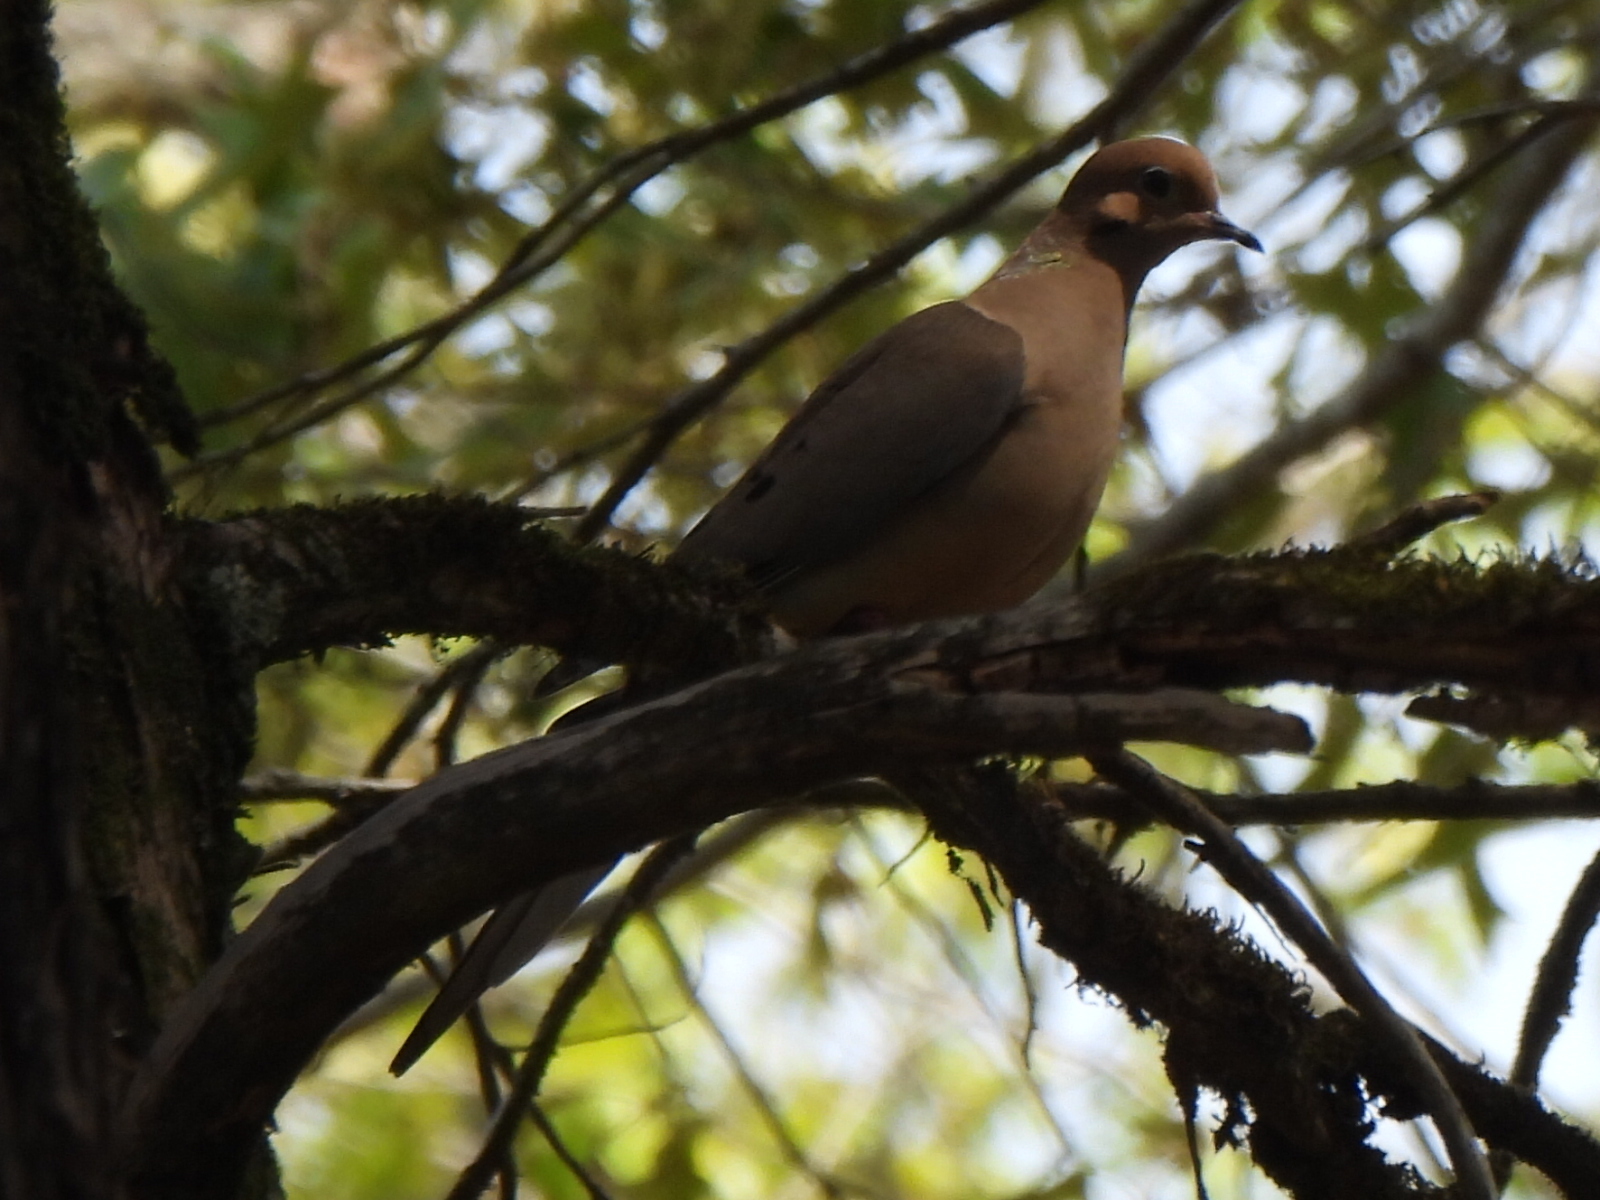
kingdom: Animalia
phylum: Chordata
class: Aves
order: Columbiformes
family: Columbidae
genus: Zenaida
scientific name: Zenaida macroura
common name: Mourning dove
